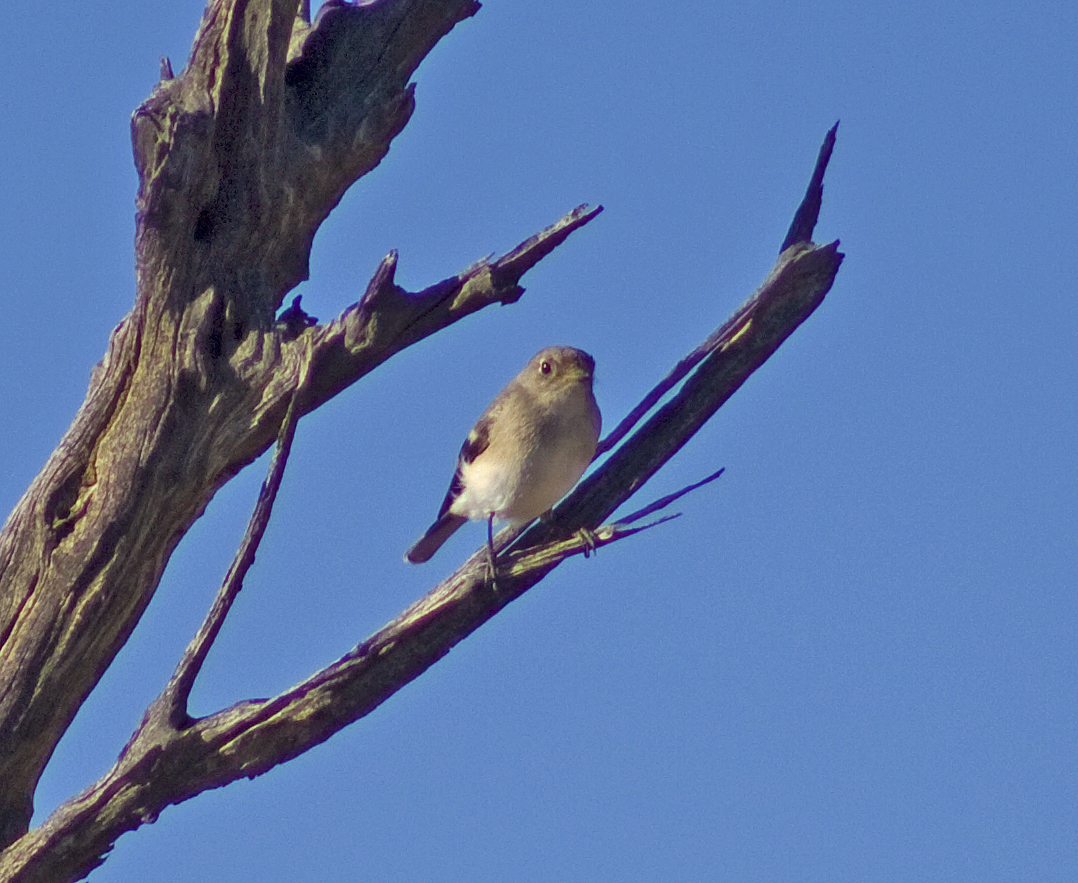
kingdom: Animalia
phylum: Chordata
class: Aves
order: Passeriformes
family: Petroicidae
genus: Petroica
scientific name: Petroica goodenovii
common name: Red-capped robin
